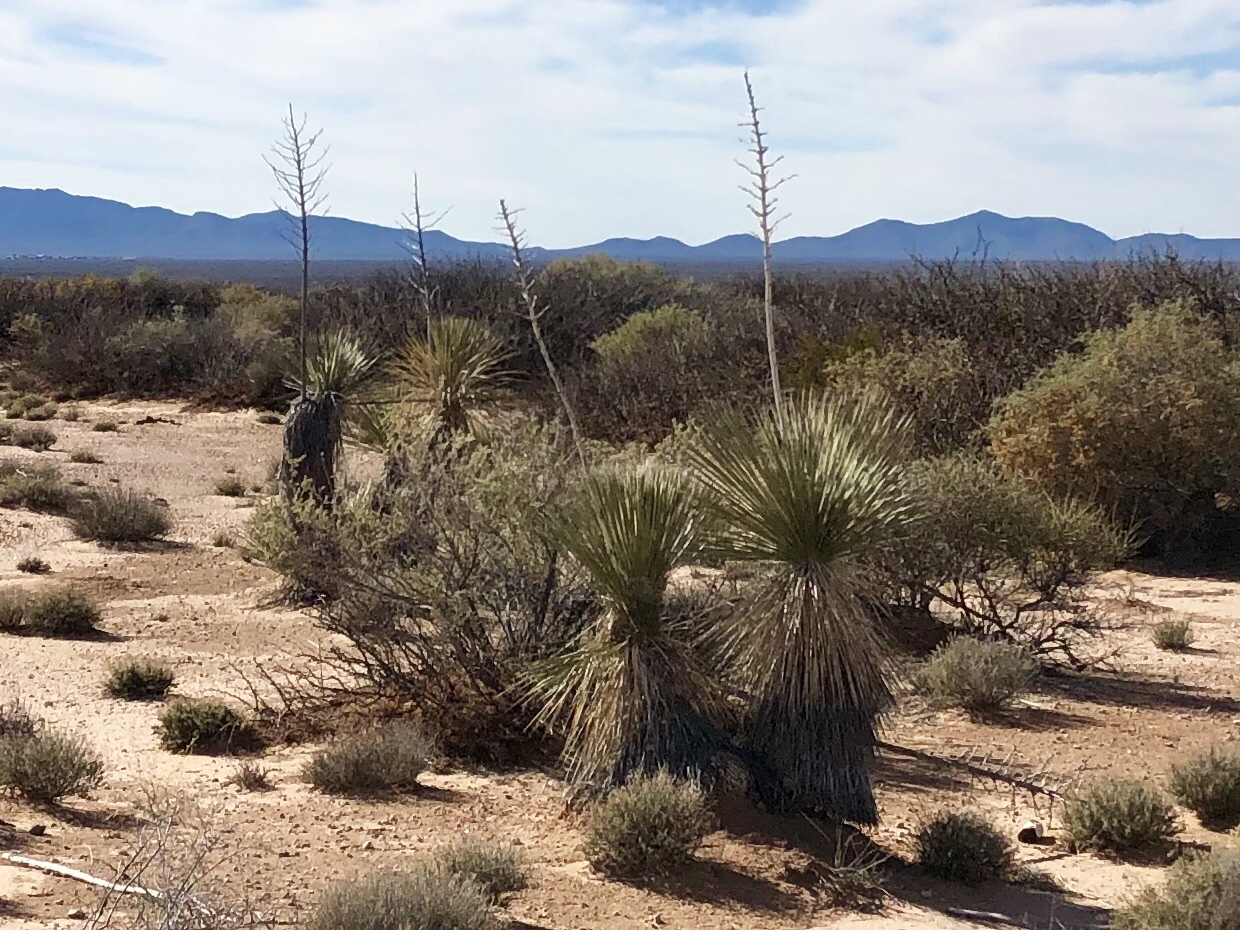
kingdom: Plantae
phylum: Tracheophyta
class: Liliopsida
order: Asparagales
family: Asparagaceae
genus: Yucca
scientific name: Yucca elata
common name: Palmella
